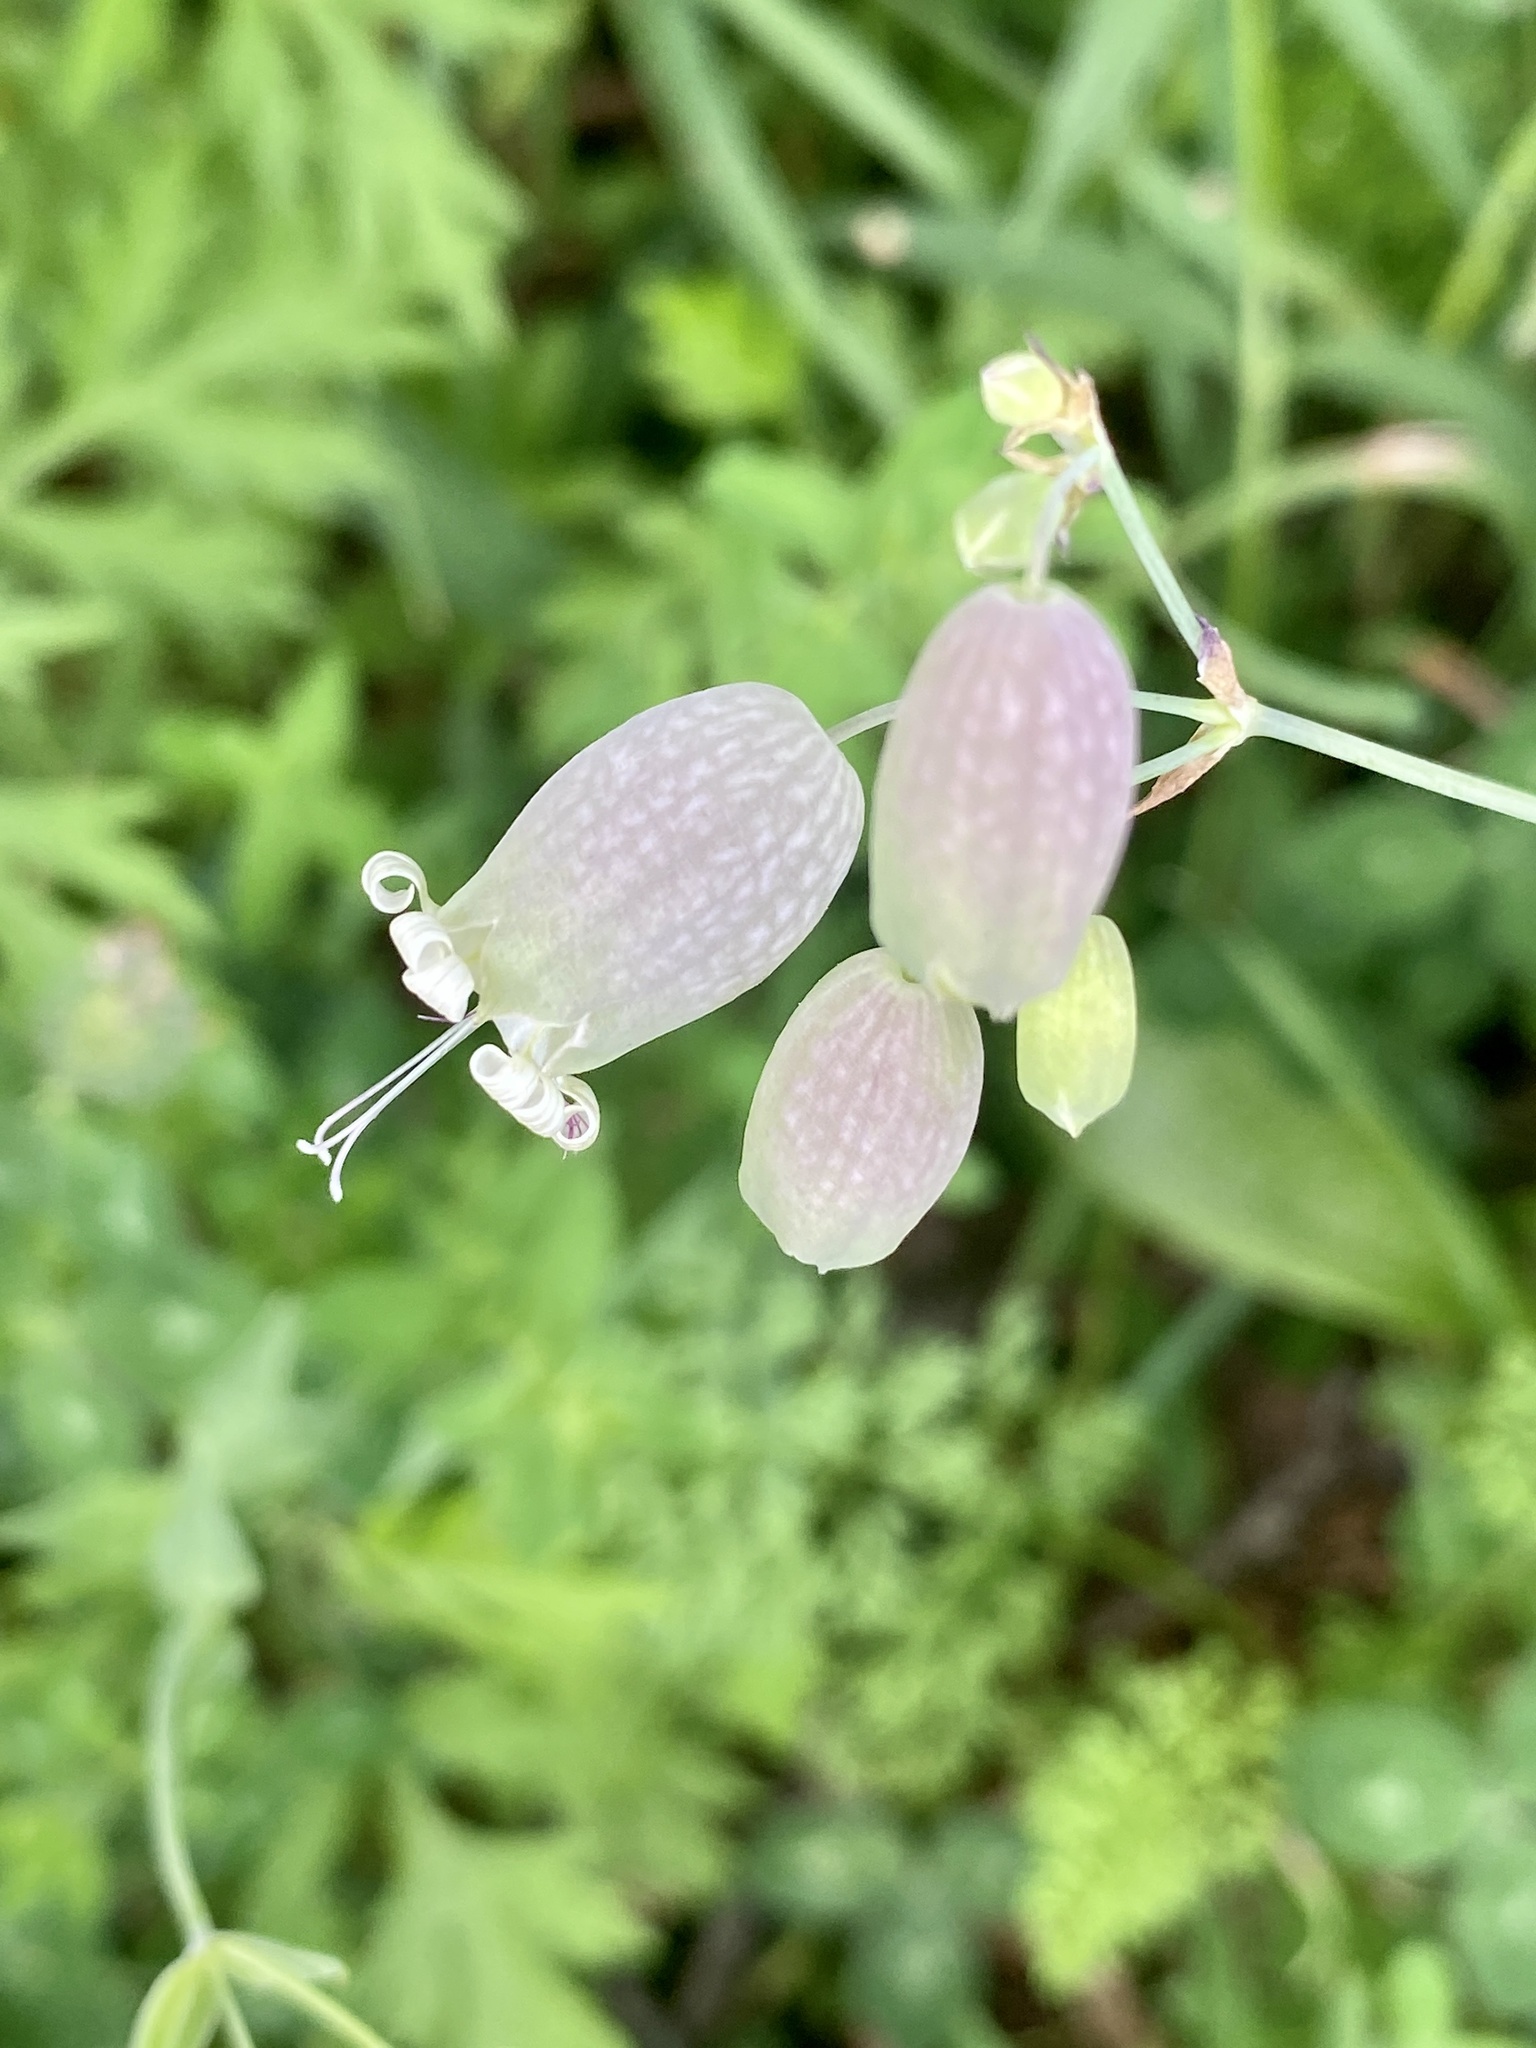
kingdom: Plantae
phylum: Tracheophyta
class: Magnoliopsida
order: Caryophyllales
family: Caryophyllaceae
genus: Silene
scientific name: Silene vulgaris
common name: Bladder campion
